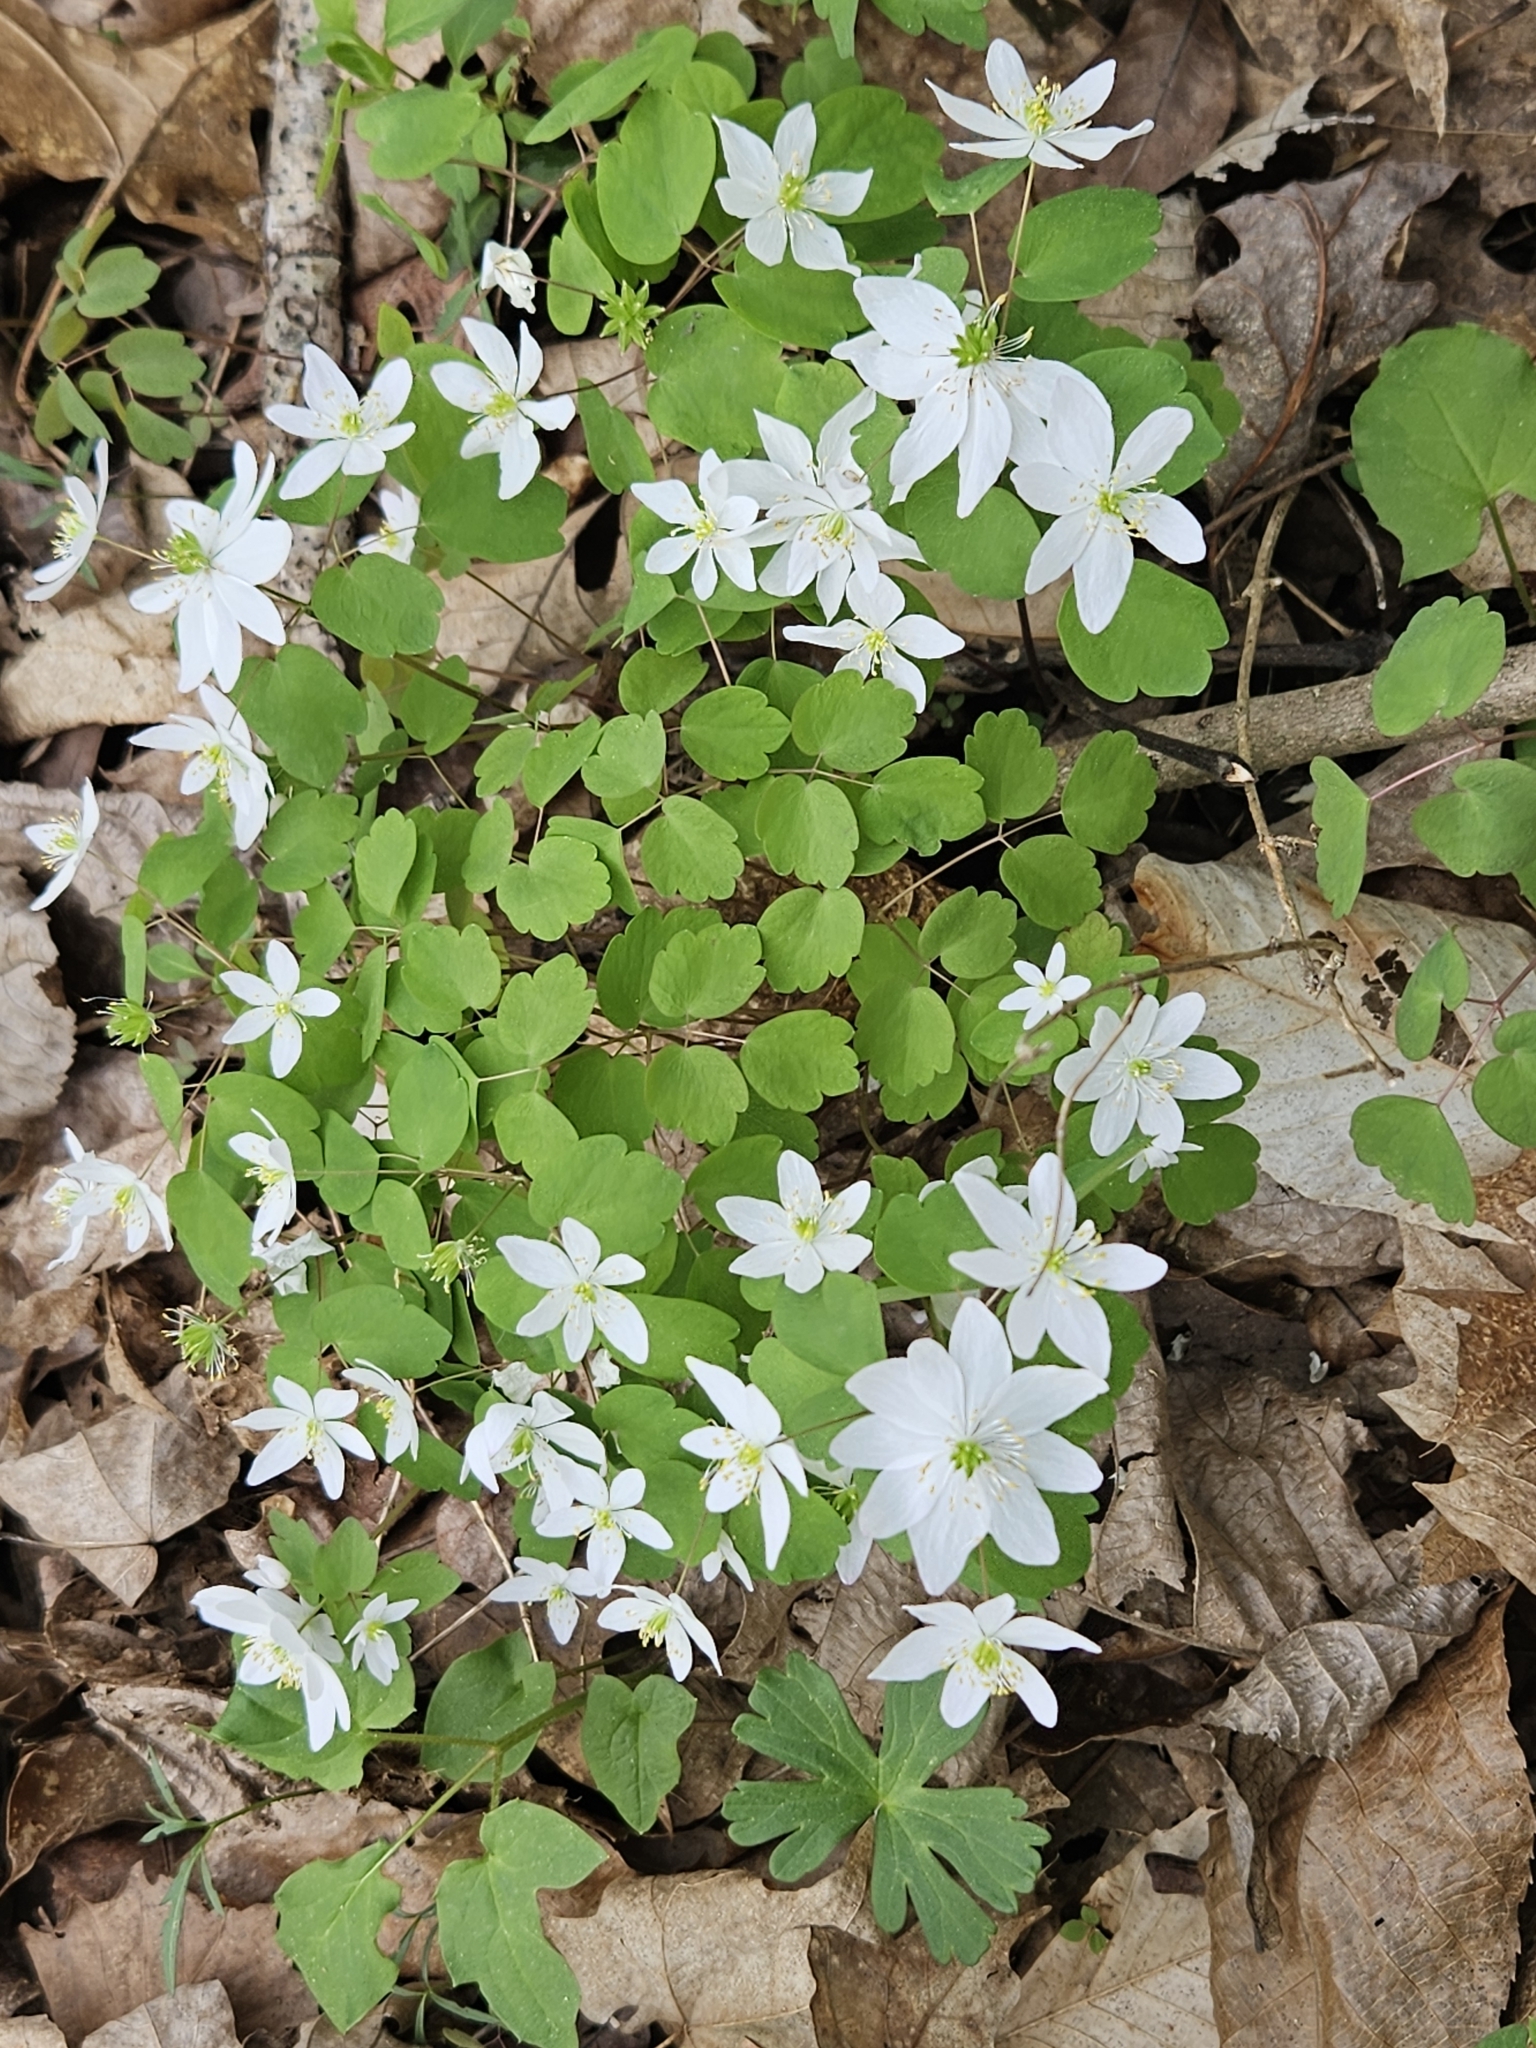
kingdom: Plantae
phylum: Tracheophyta
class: Magnoliopsida
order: Ranunculales
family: Ranunculaceae
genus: Thalictrum
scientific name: Thalictrum thalictroides
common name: Rue-anemone
